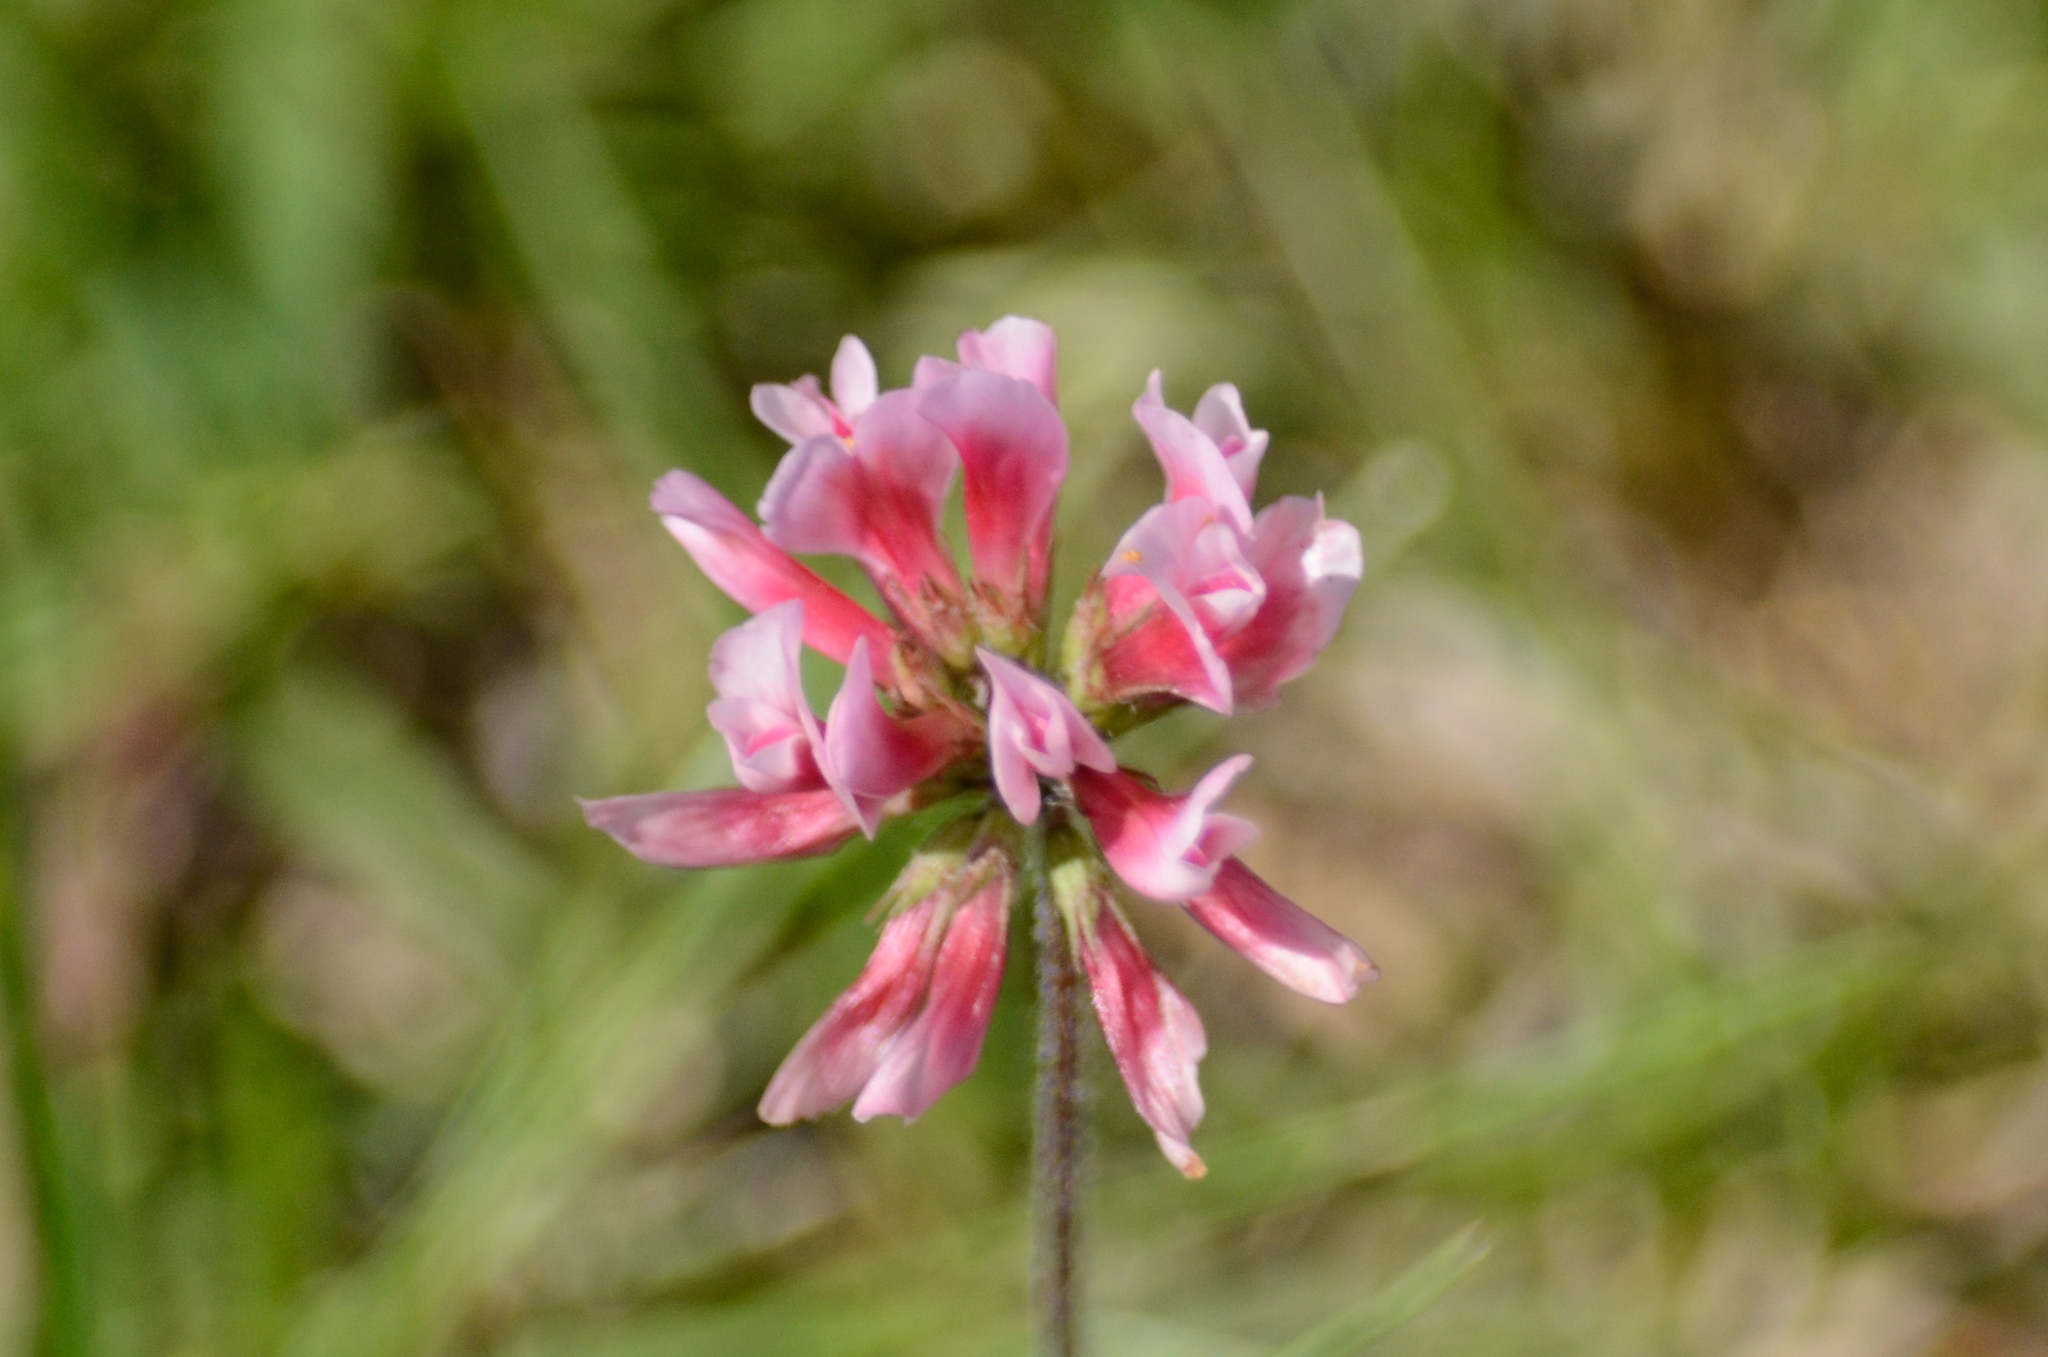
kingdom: Plantae
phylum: Tracheophyta
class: Magnoliopsida
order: Fabales
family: Fabaceae
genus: Trifolium
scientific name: Trifolium polymorphum
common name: Peanut clover
